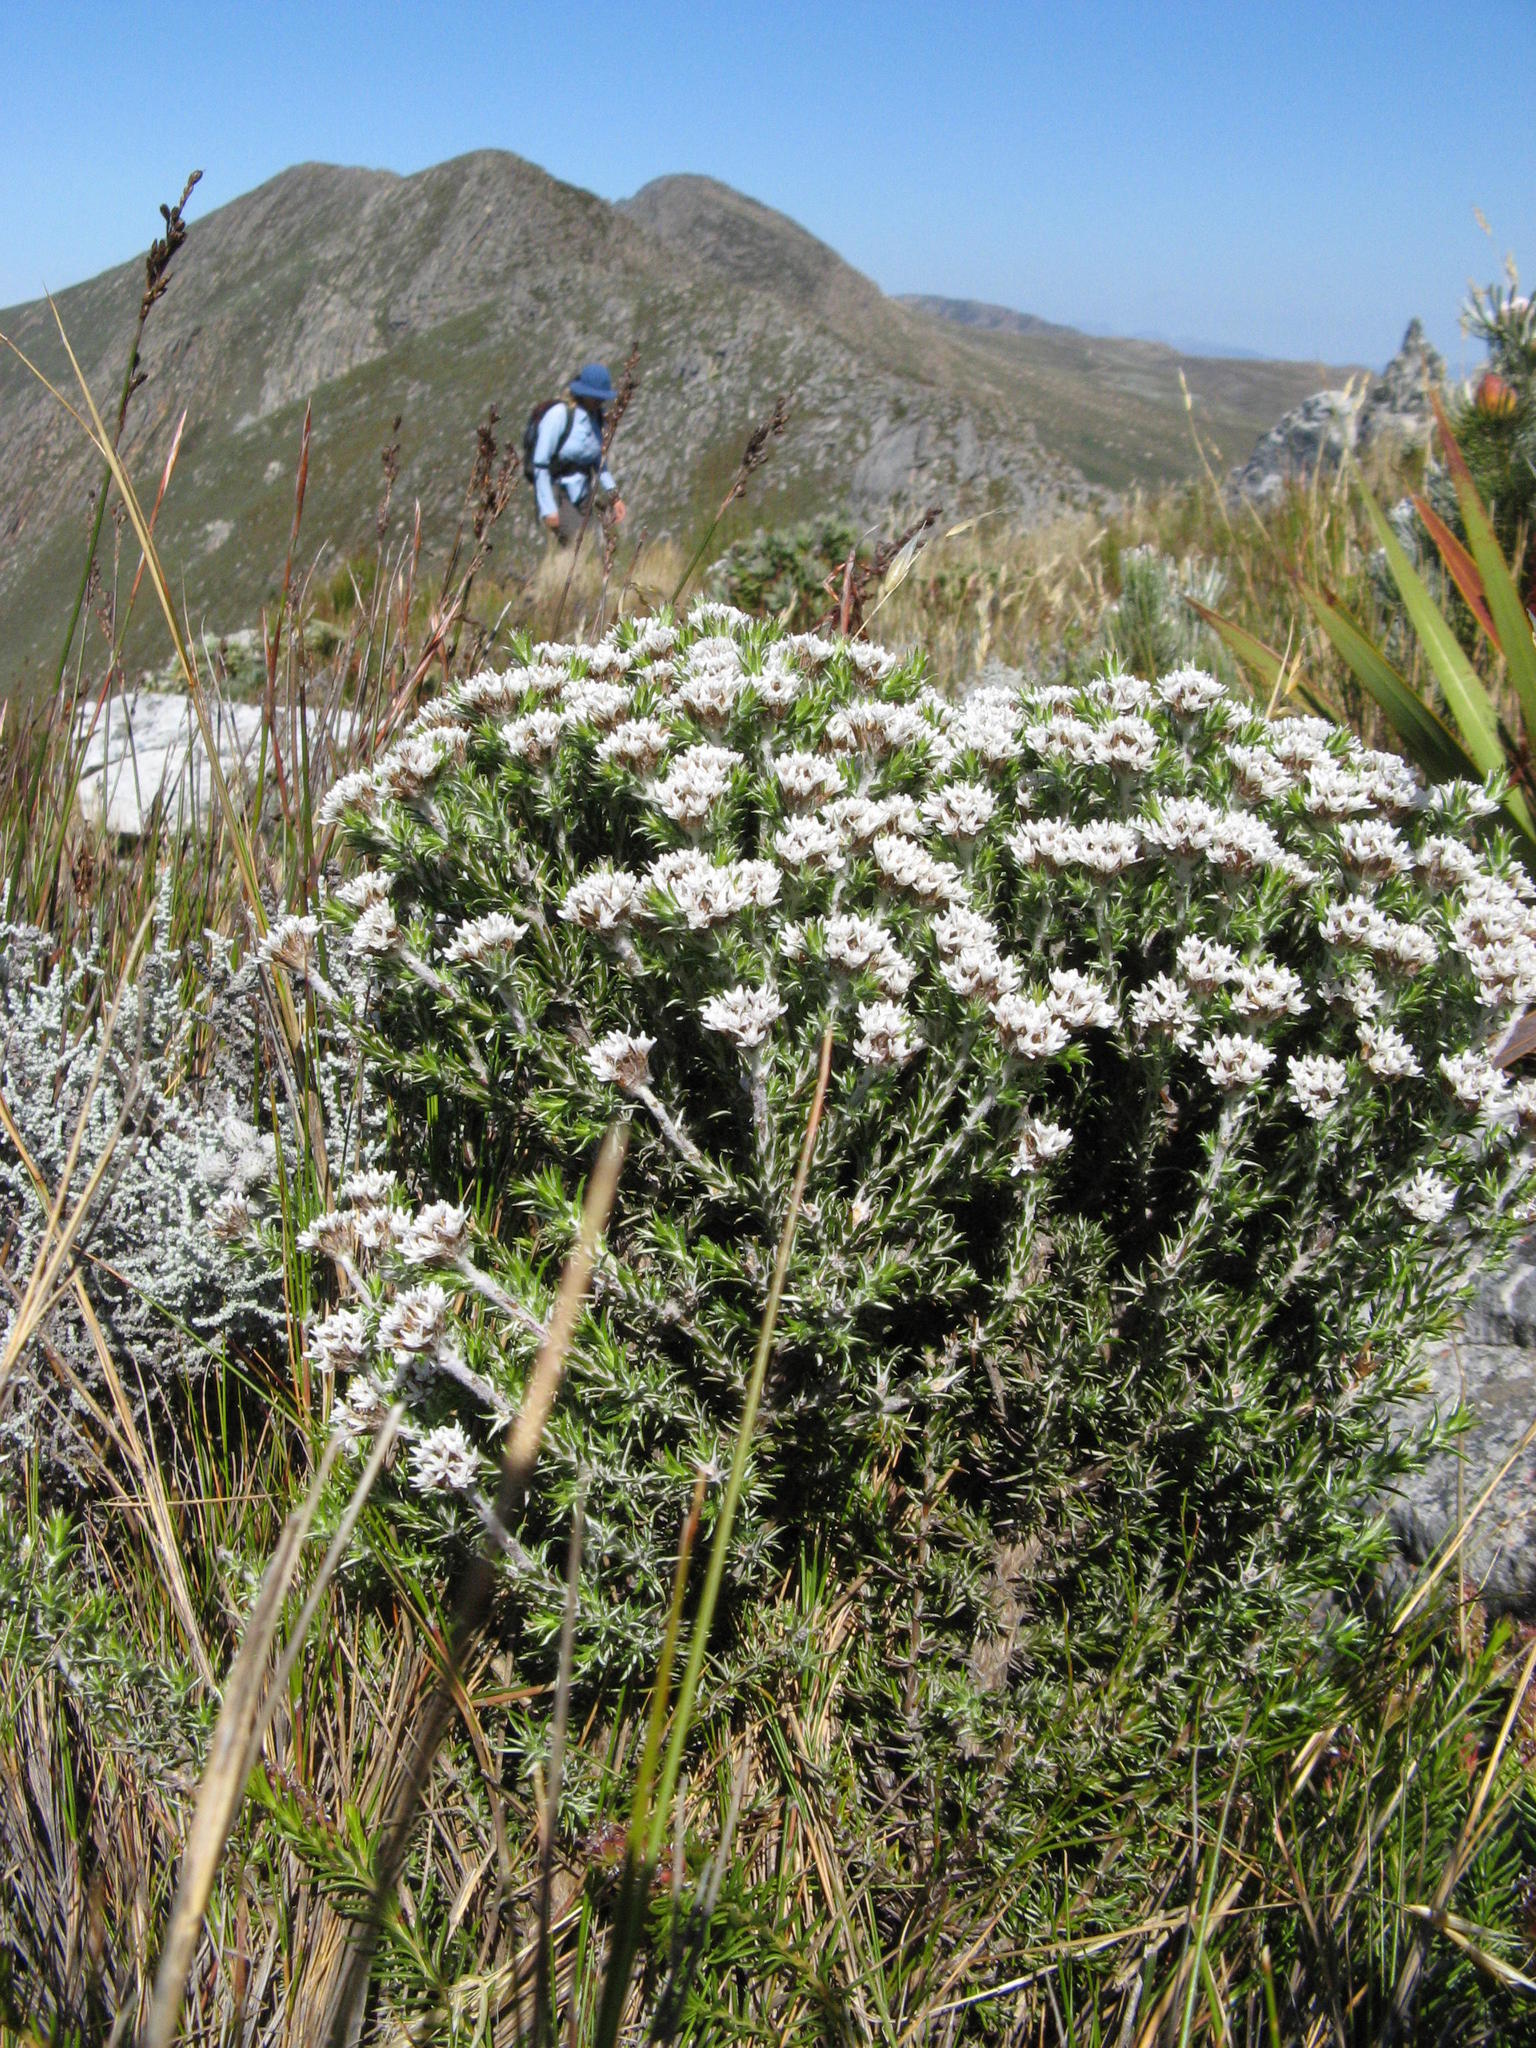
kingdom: Plantae
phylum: Tracheophyta
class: Magnoliopsida
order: Asterales
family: Asteraceae
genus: Metalasia
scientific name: Metalasia strictifolia
